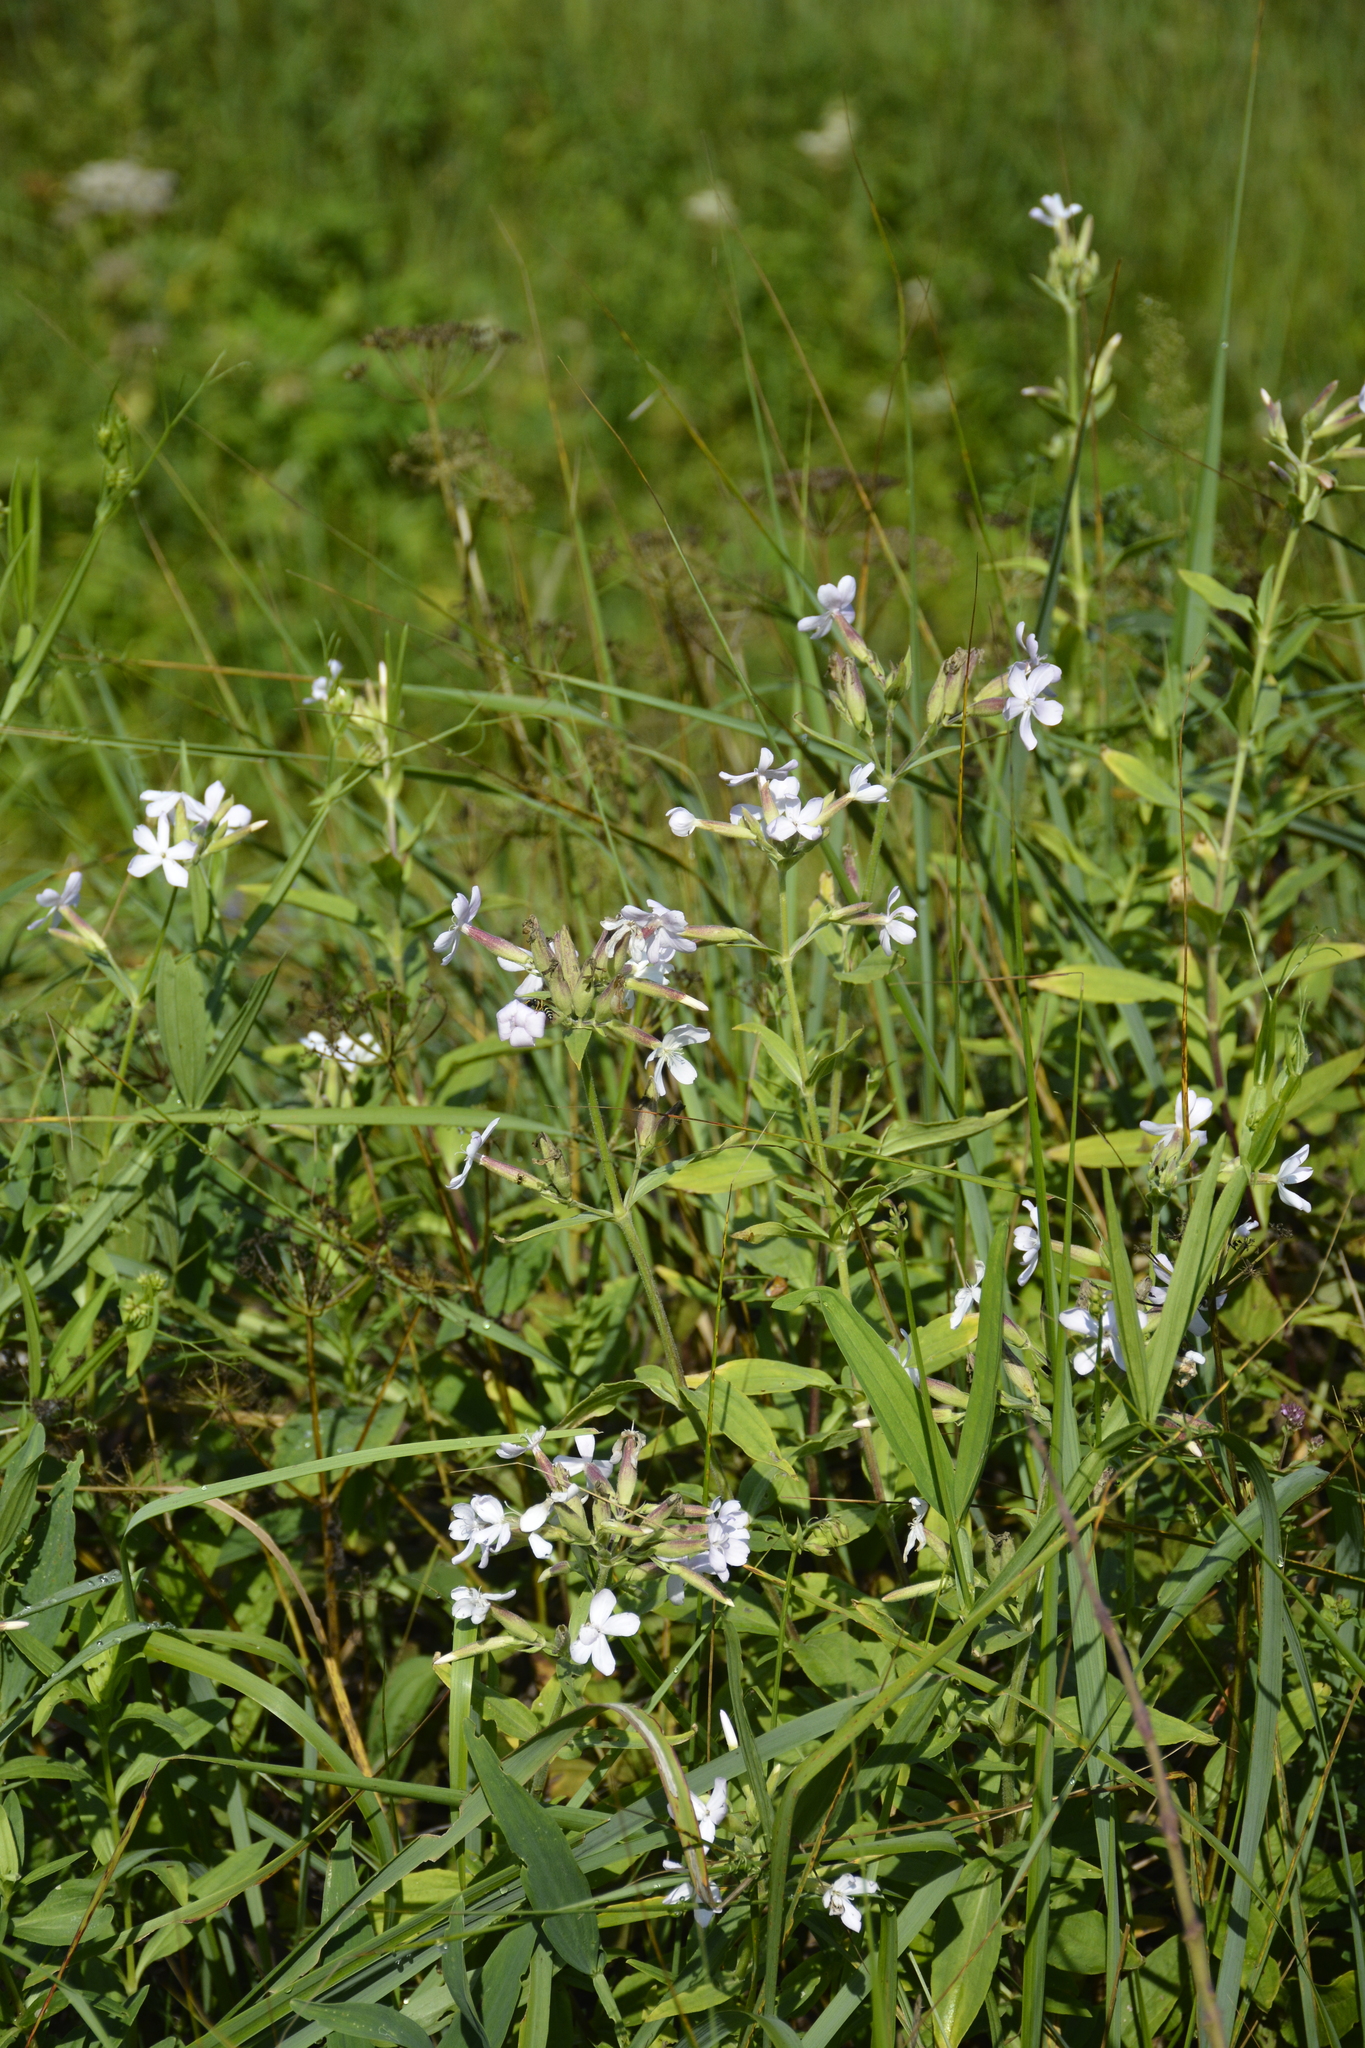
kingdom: Plantae
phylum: Tracheophyta
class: Magnoliopsida
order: Caryophyllales
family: Caryophyllaceae
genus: Saponaria
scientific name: Saponaria officinalis
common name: Soapwort
